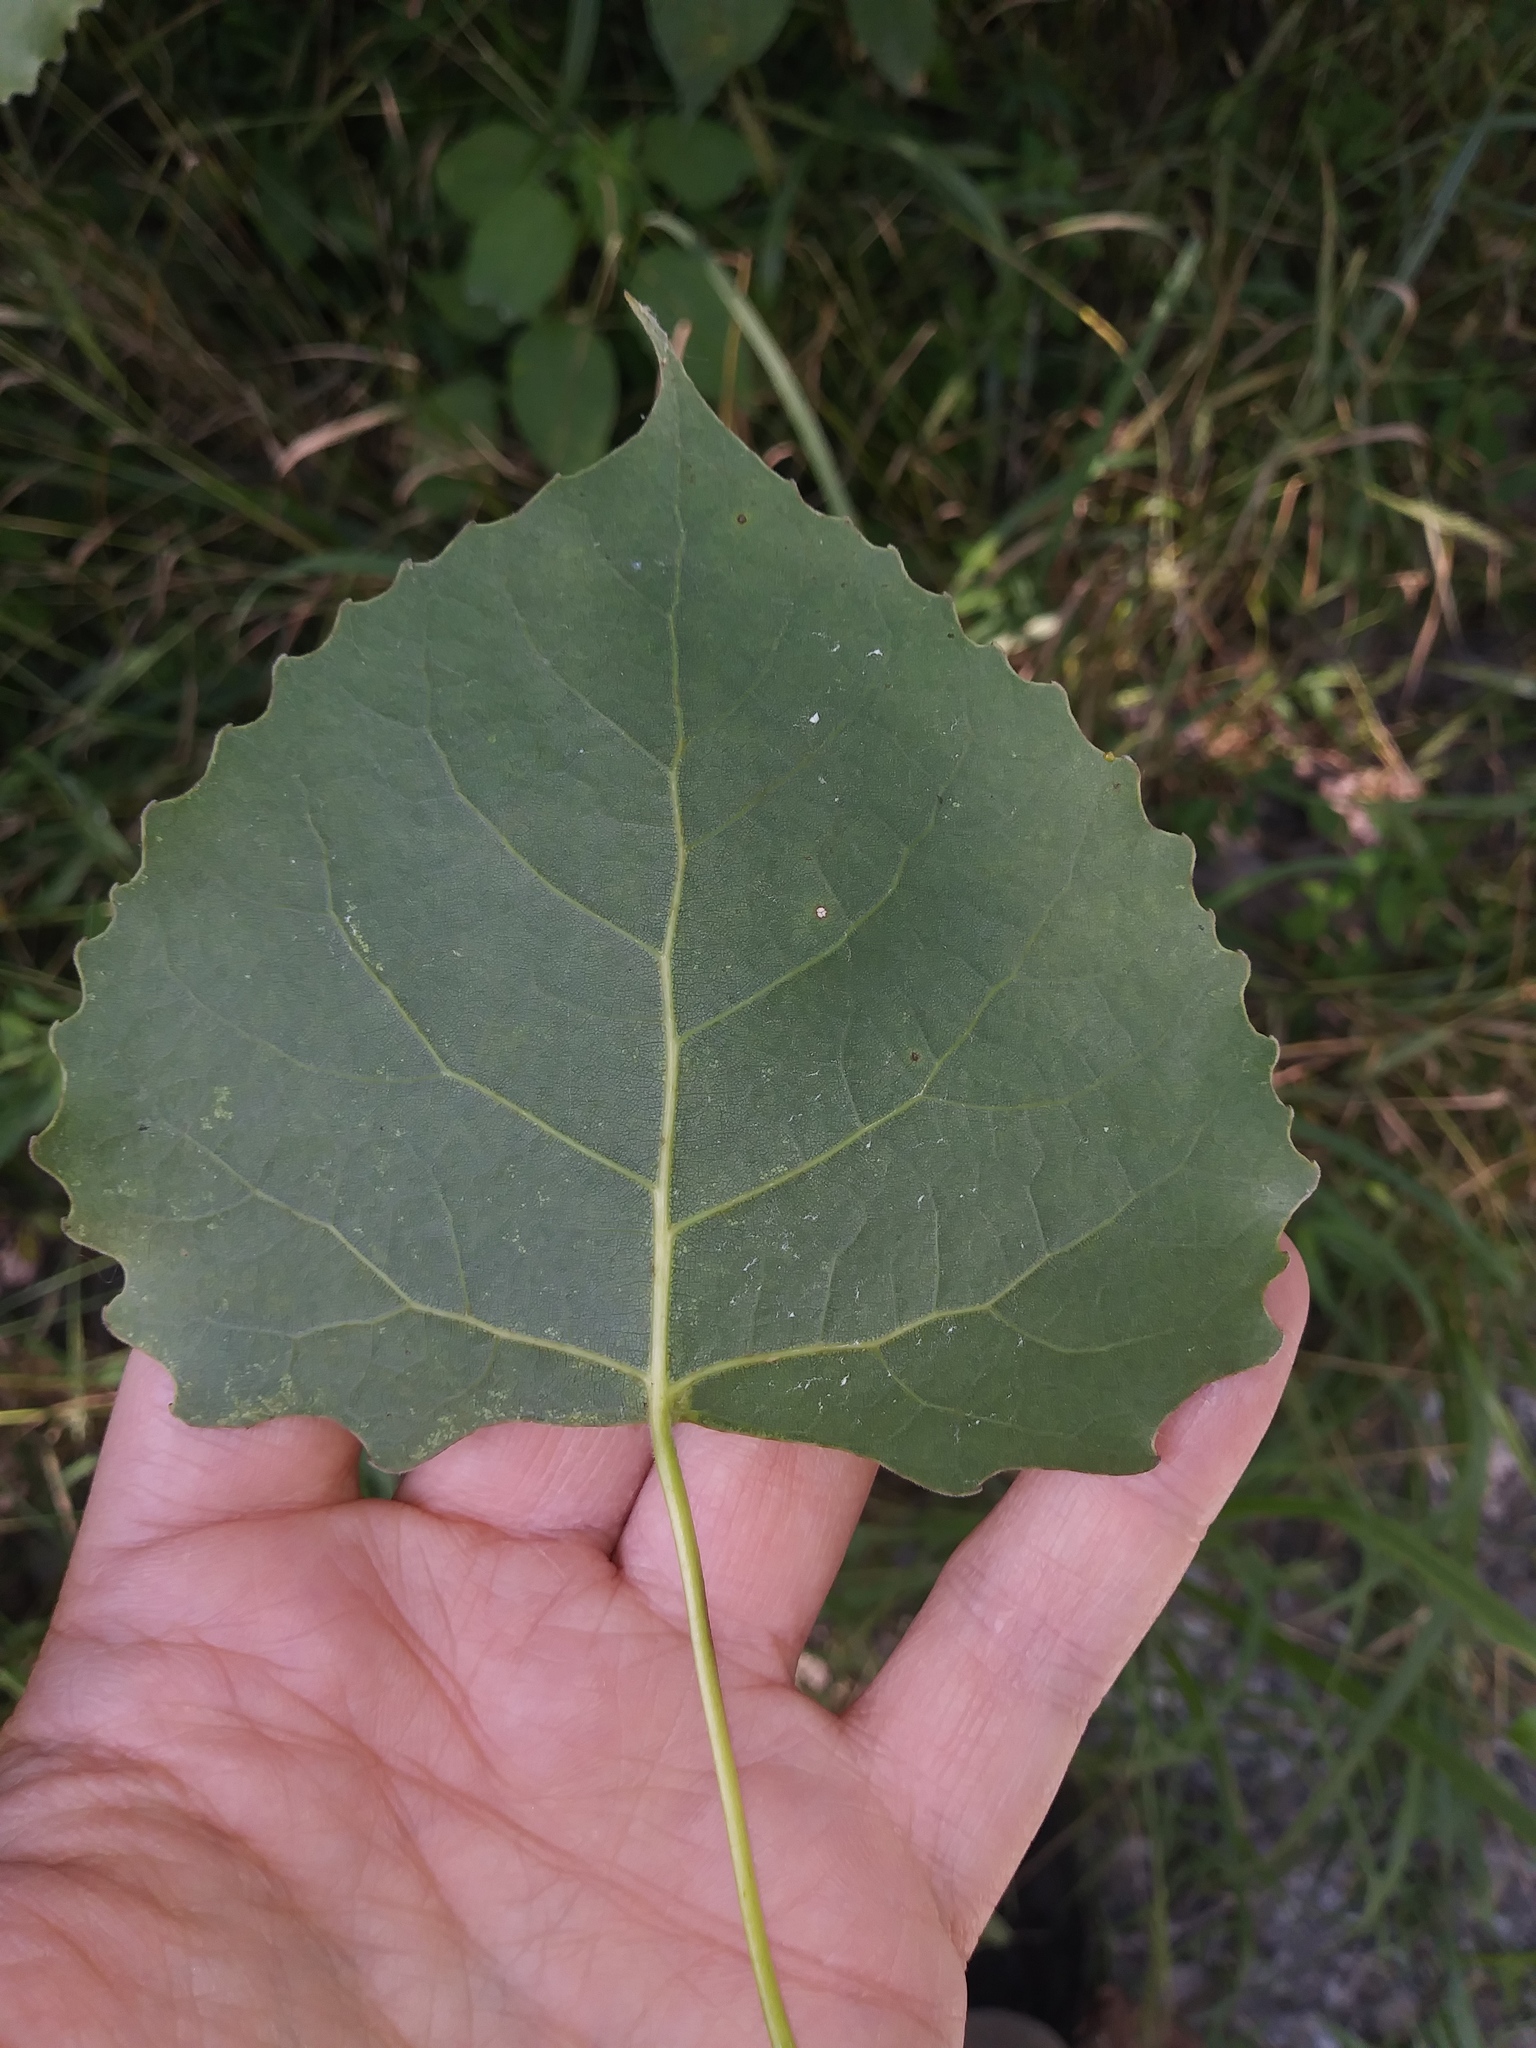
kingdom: Plantae
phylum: Tracheophyta
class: Magnoliopsida
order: Malpighiales
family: Salicaceae
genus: Populus
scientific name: Populus deltoides
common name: Eastern cottonwood
